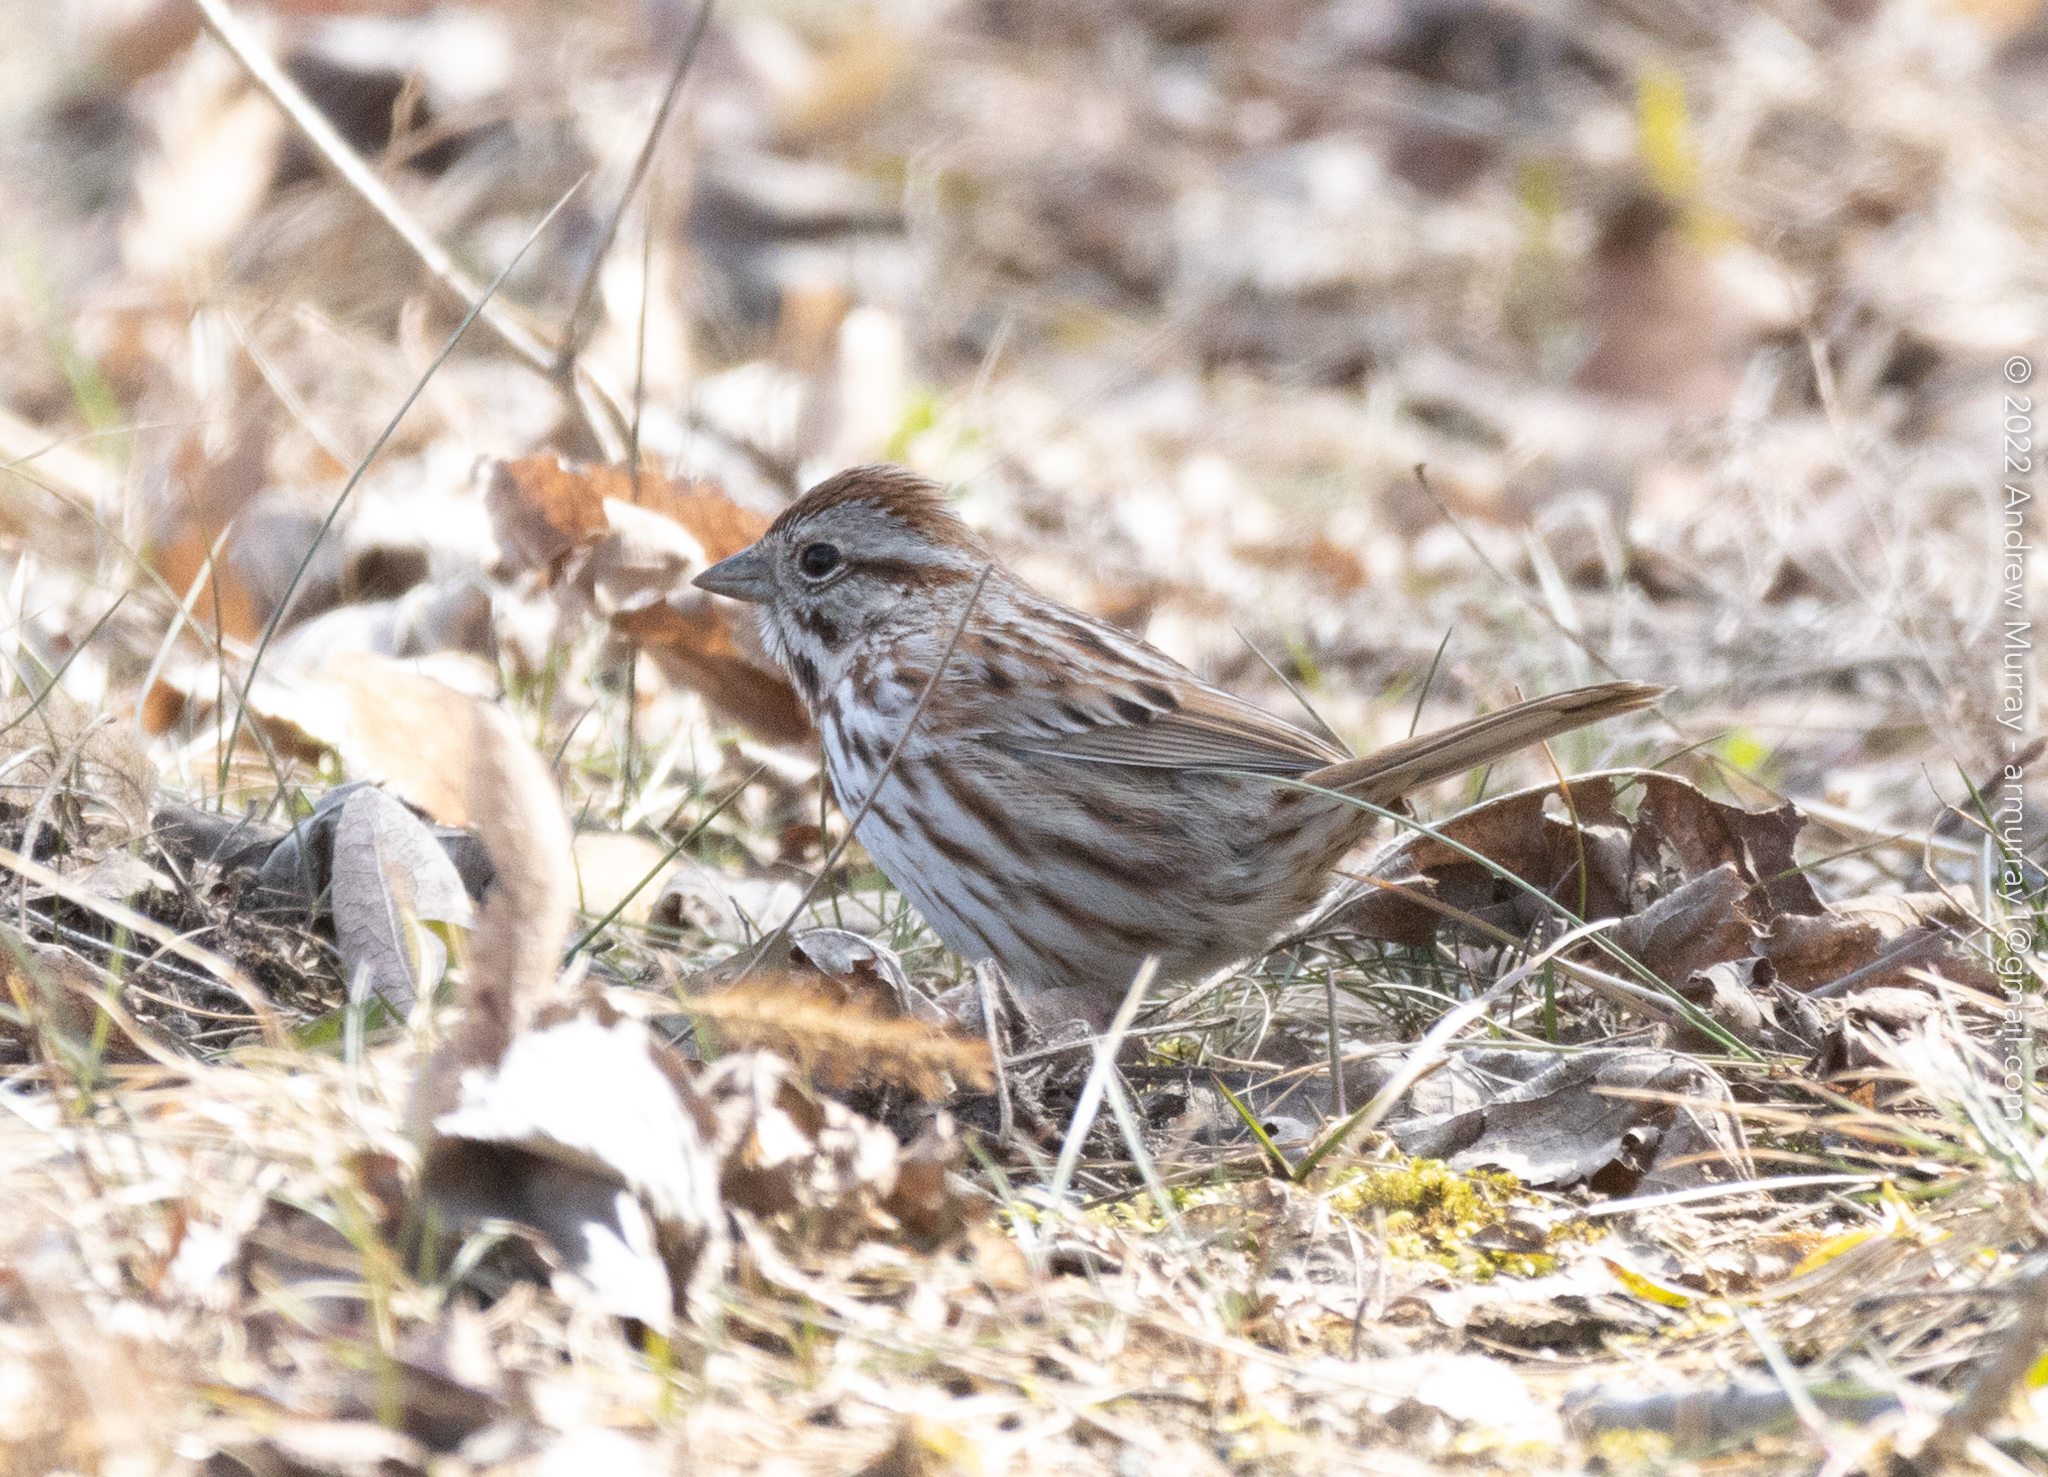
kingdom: Animalia
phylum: Chordata
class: Aves
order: Passeriformes
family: Passerellidae
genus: Melospiza
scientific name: Melospiza melodia
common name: Song sparrow
